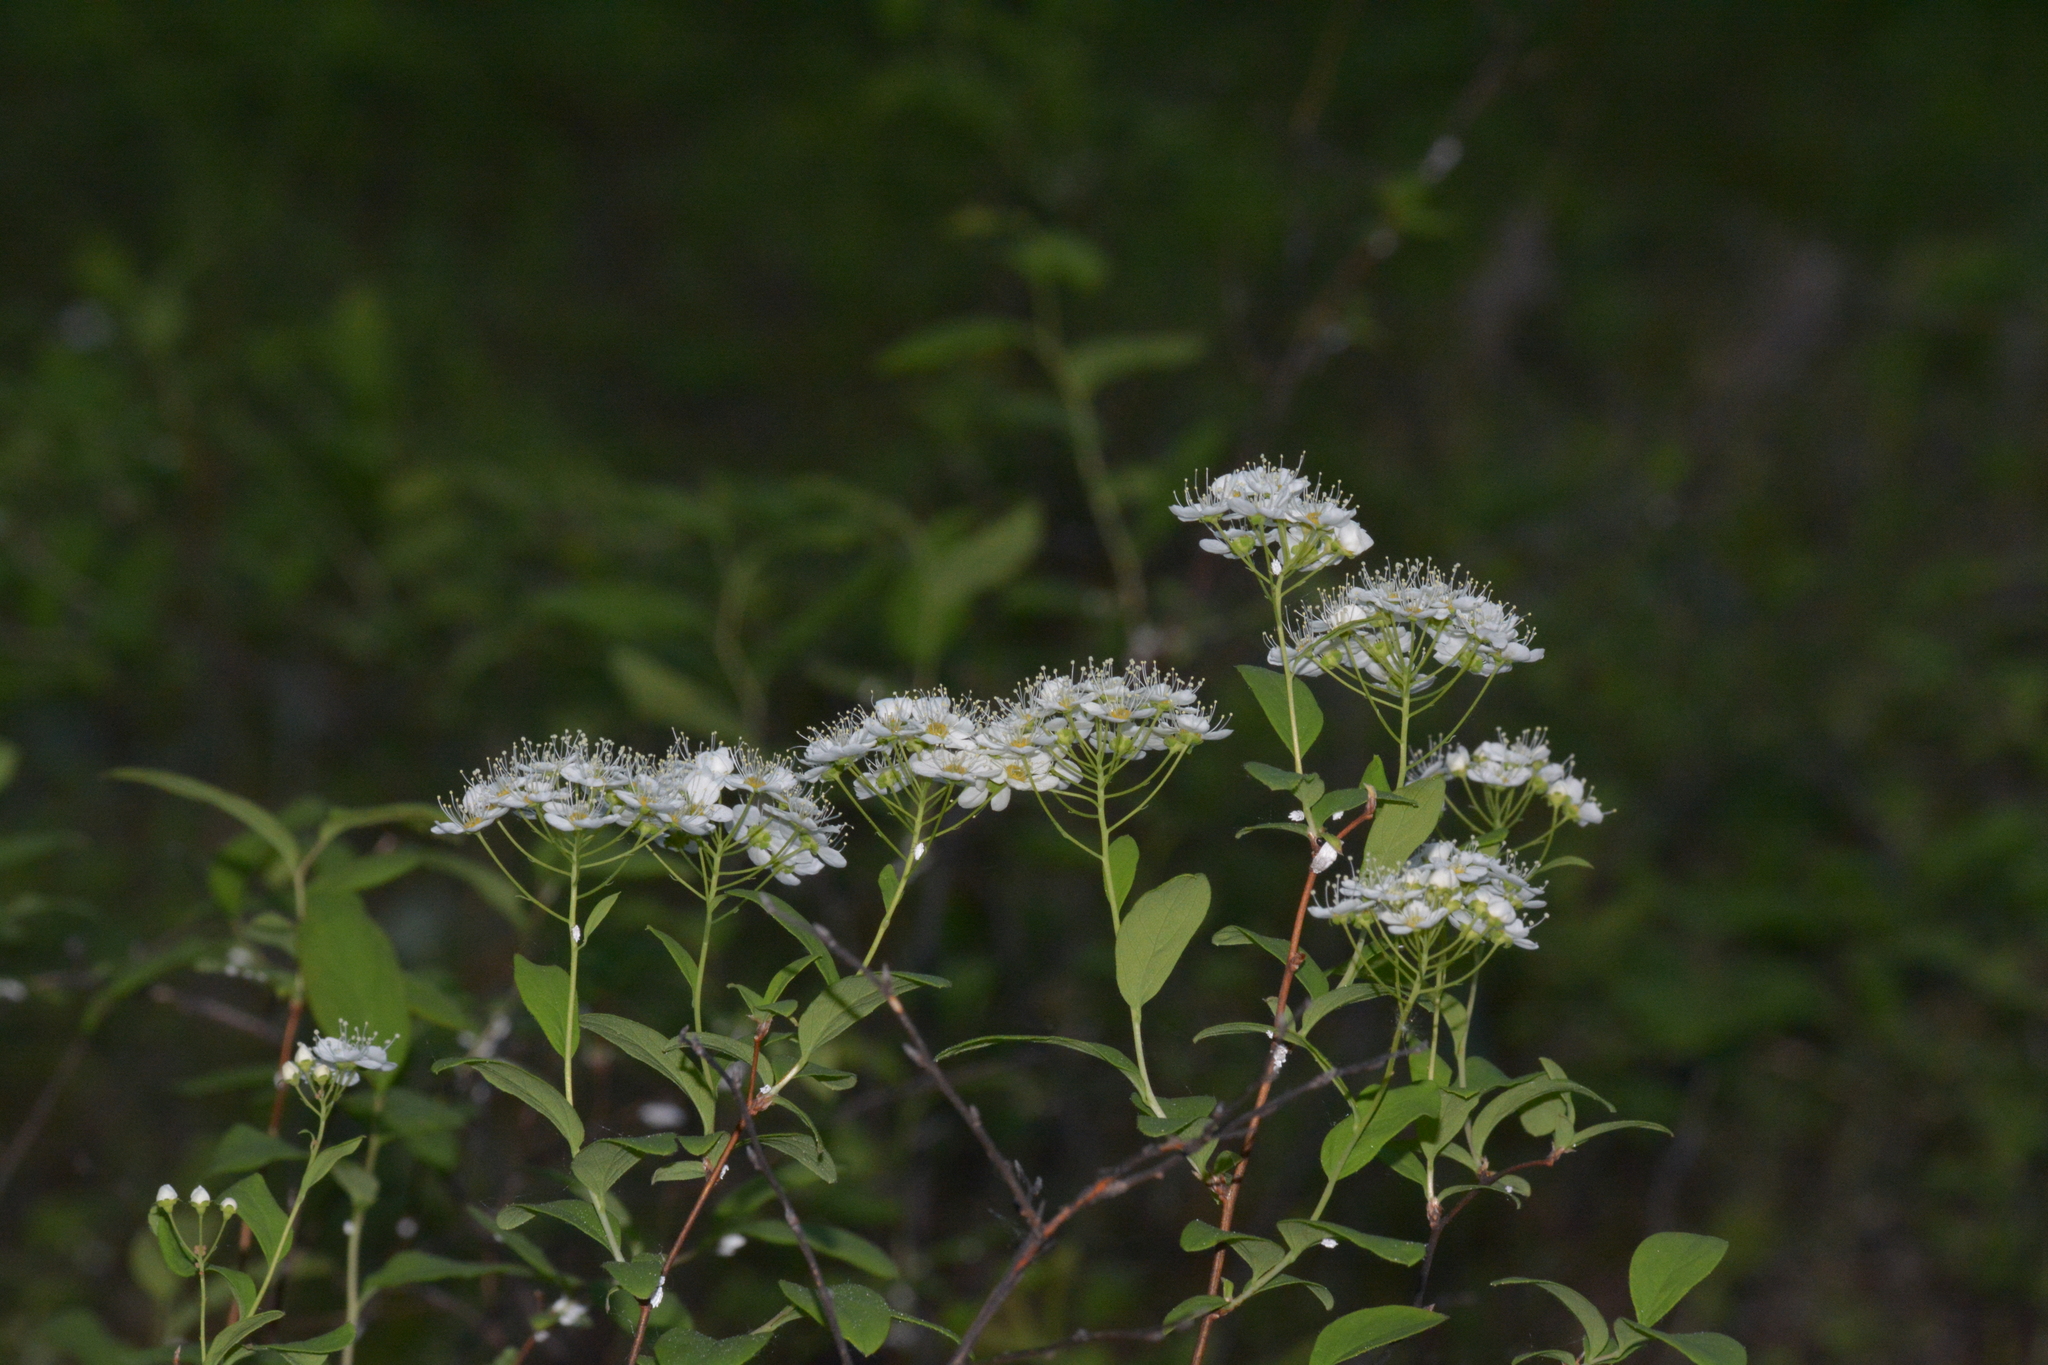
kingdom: Plantae
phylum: Tracheophyta
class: Magnoliopsida
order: Rosales
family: Rosaceae
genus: Spiraea
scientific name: Spiraea media
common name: Russian spiraea
